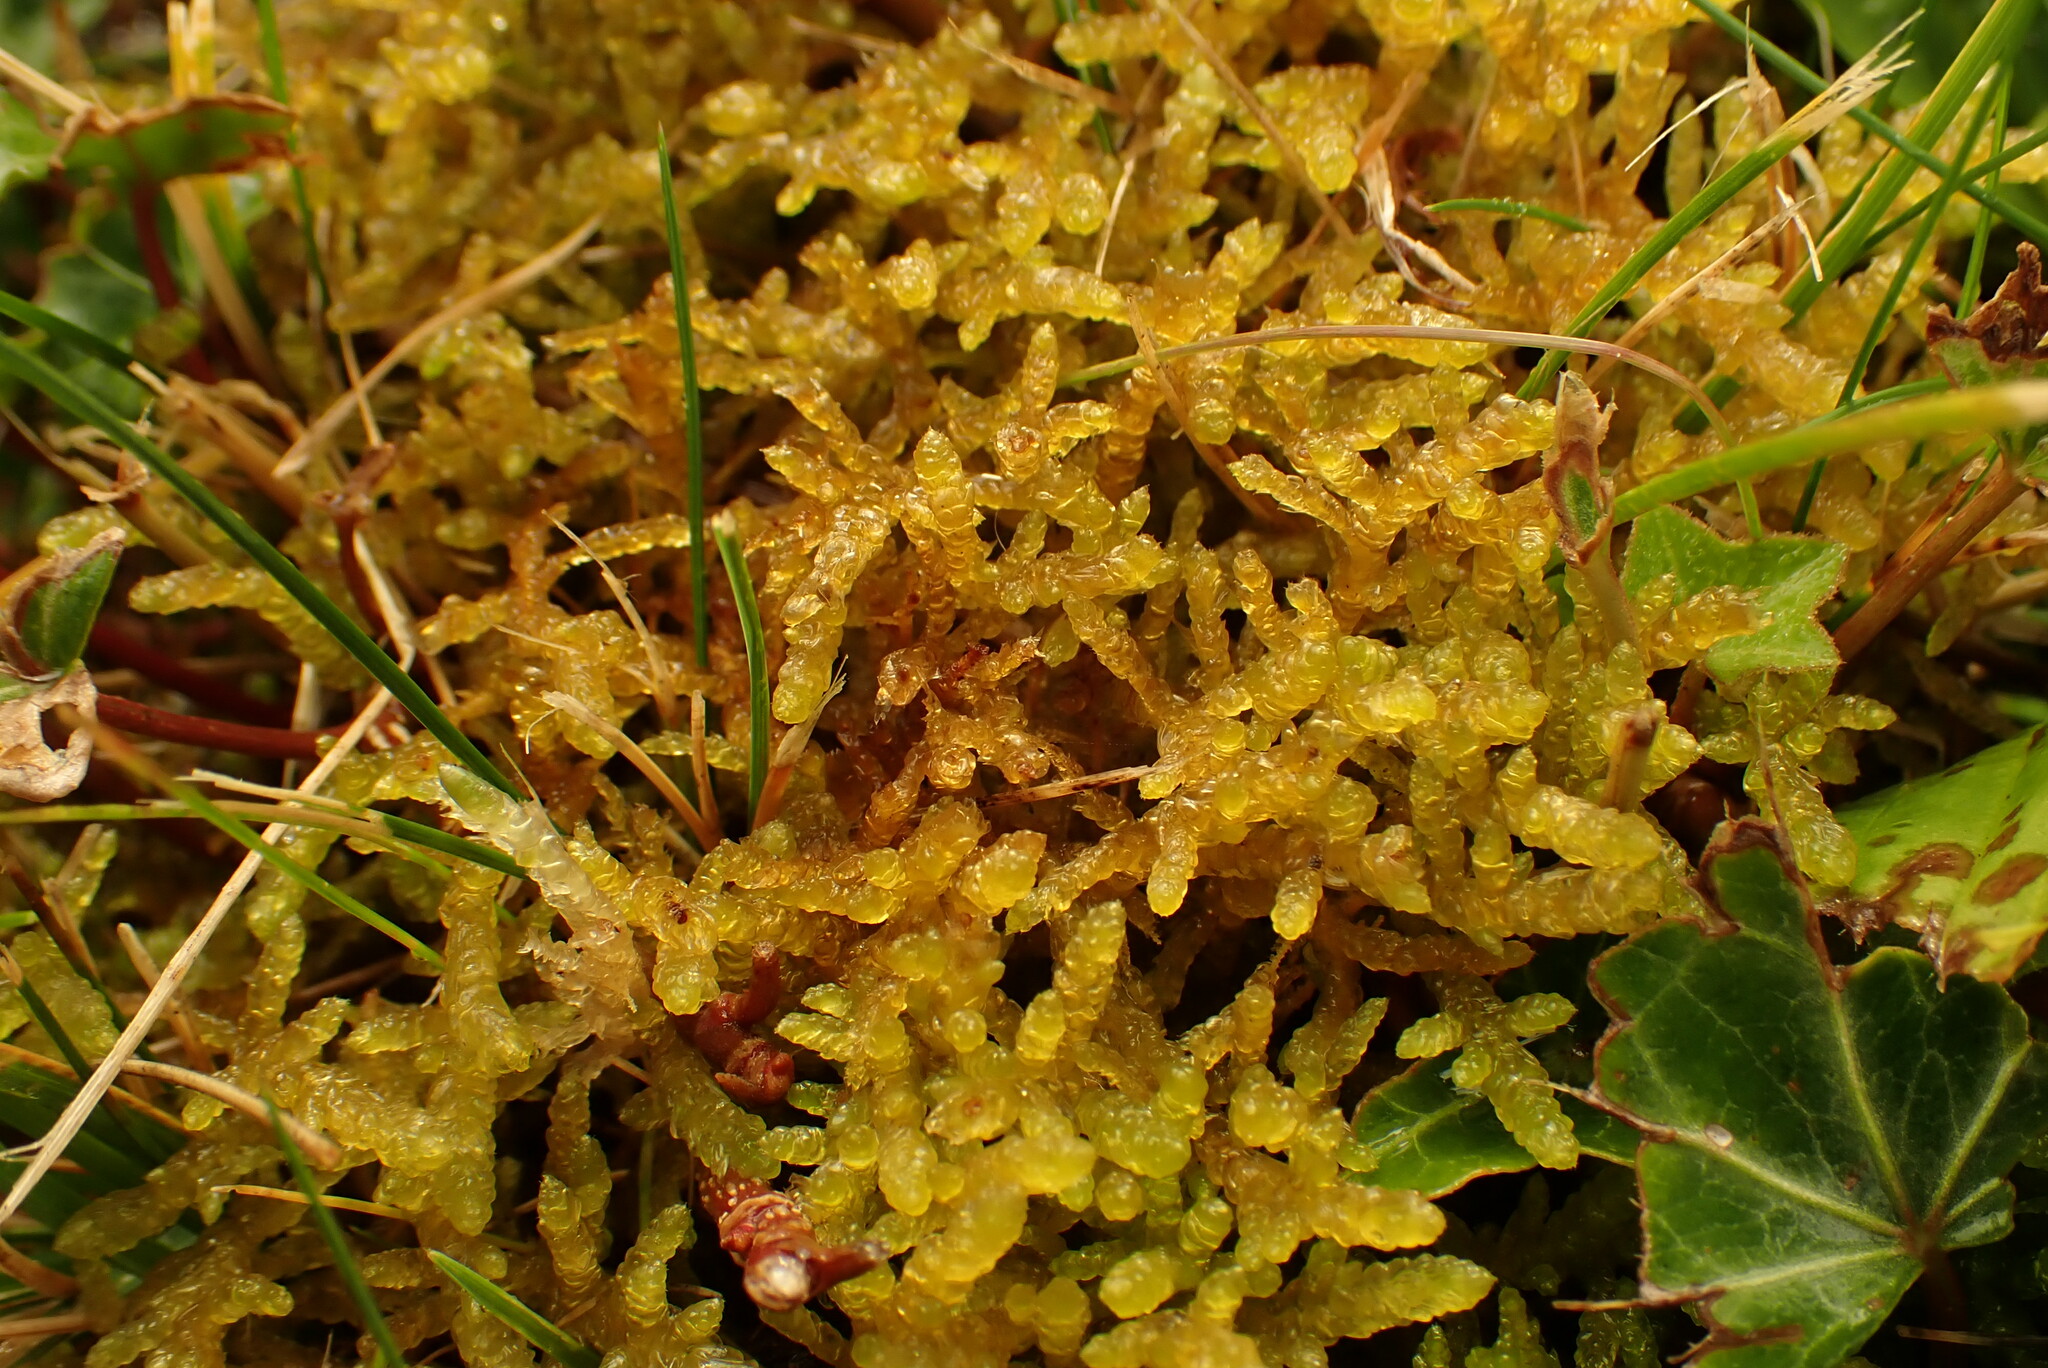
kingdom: Plantae
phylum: Bryophyta
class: Bryopsida
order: Hypnales
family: Brachytheciaceae
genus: Pseudoscleropodium
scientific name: Pseudoscleropodium purum
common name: Neat feather-moss
